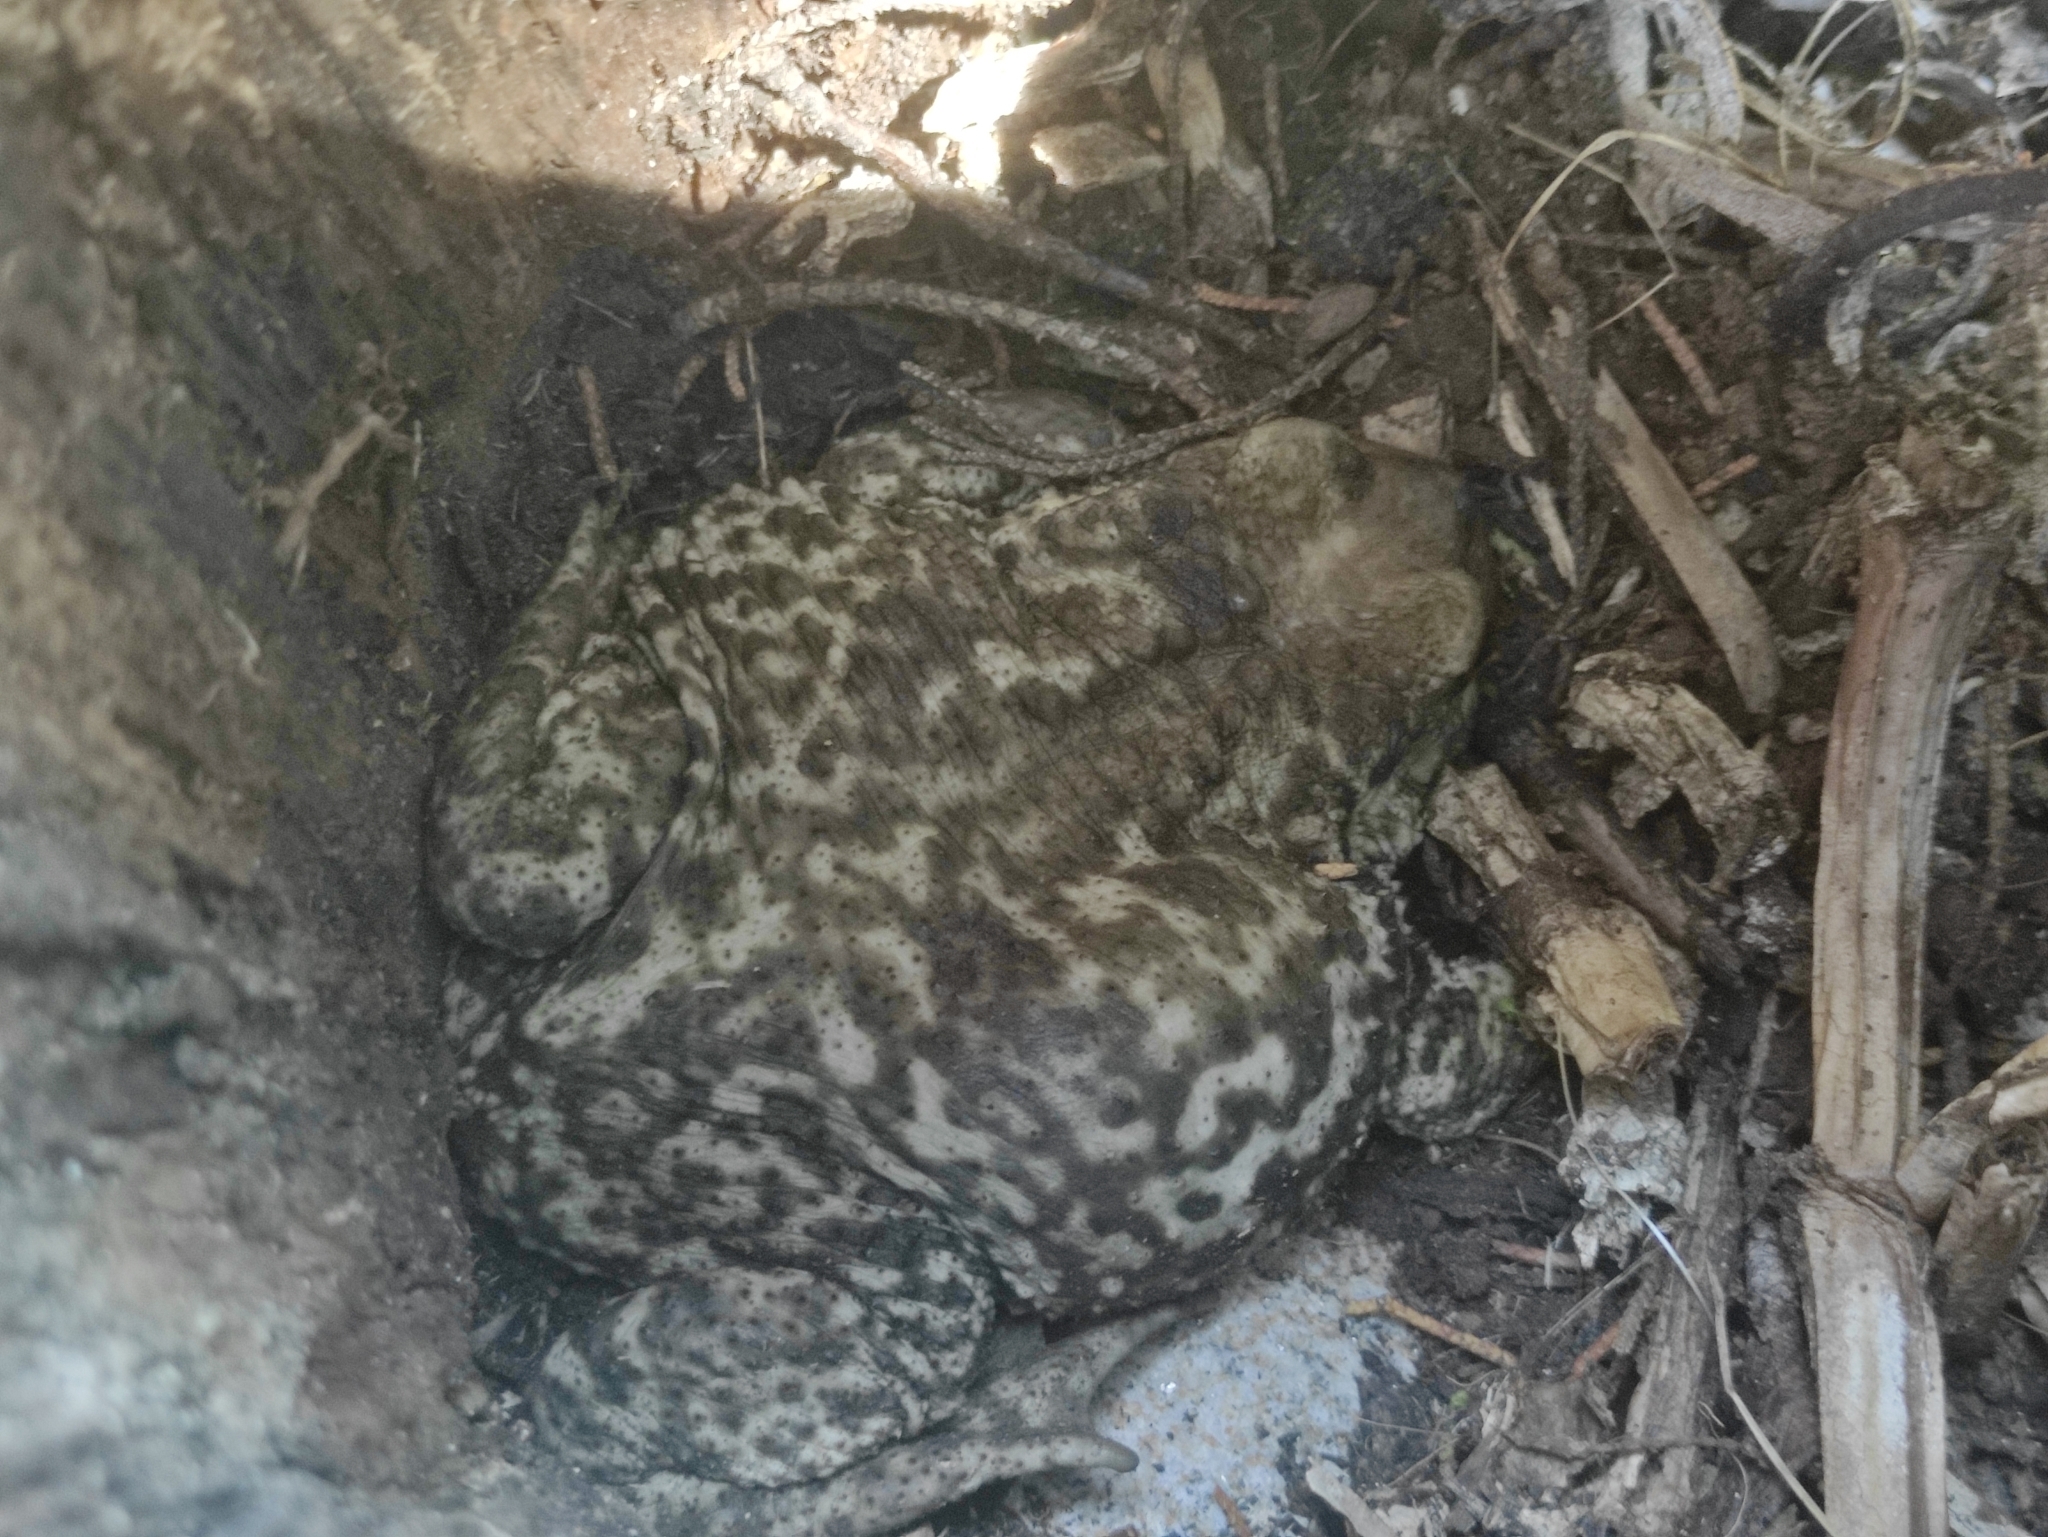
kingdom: Animalia
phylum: Chordata
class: Amphibia
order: Anura
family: Bufonidae
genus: Bufo
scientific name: Bufo spinosus
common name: Western common toad
